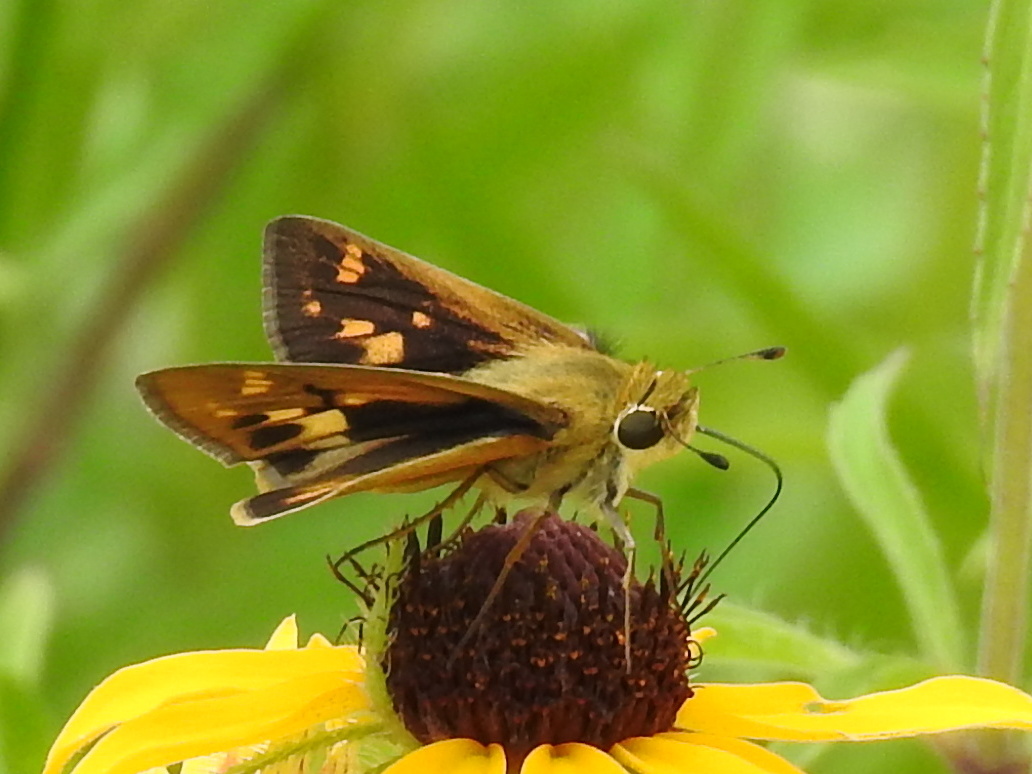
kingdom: Animalia
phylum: Arthropoda
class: Insecta
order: Lepidoptera
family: Hesperiidae
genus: Hylephila
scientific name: Hylephila phyleus
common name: Fiery skipper
